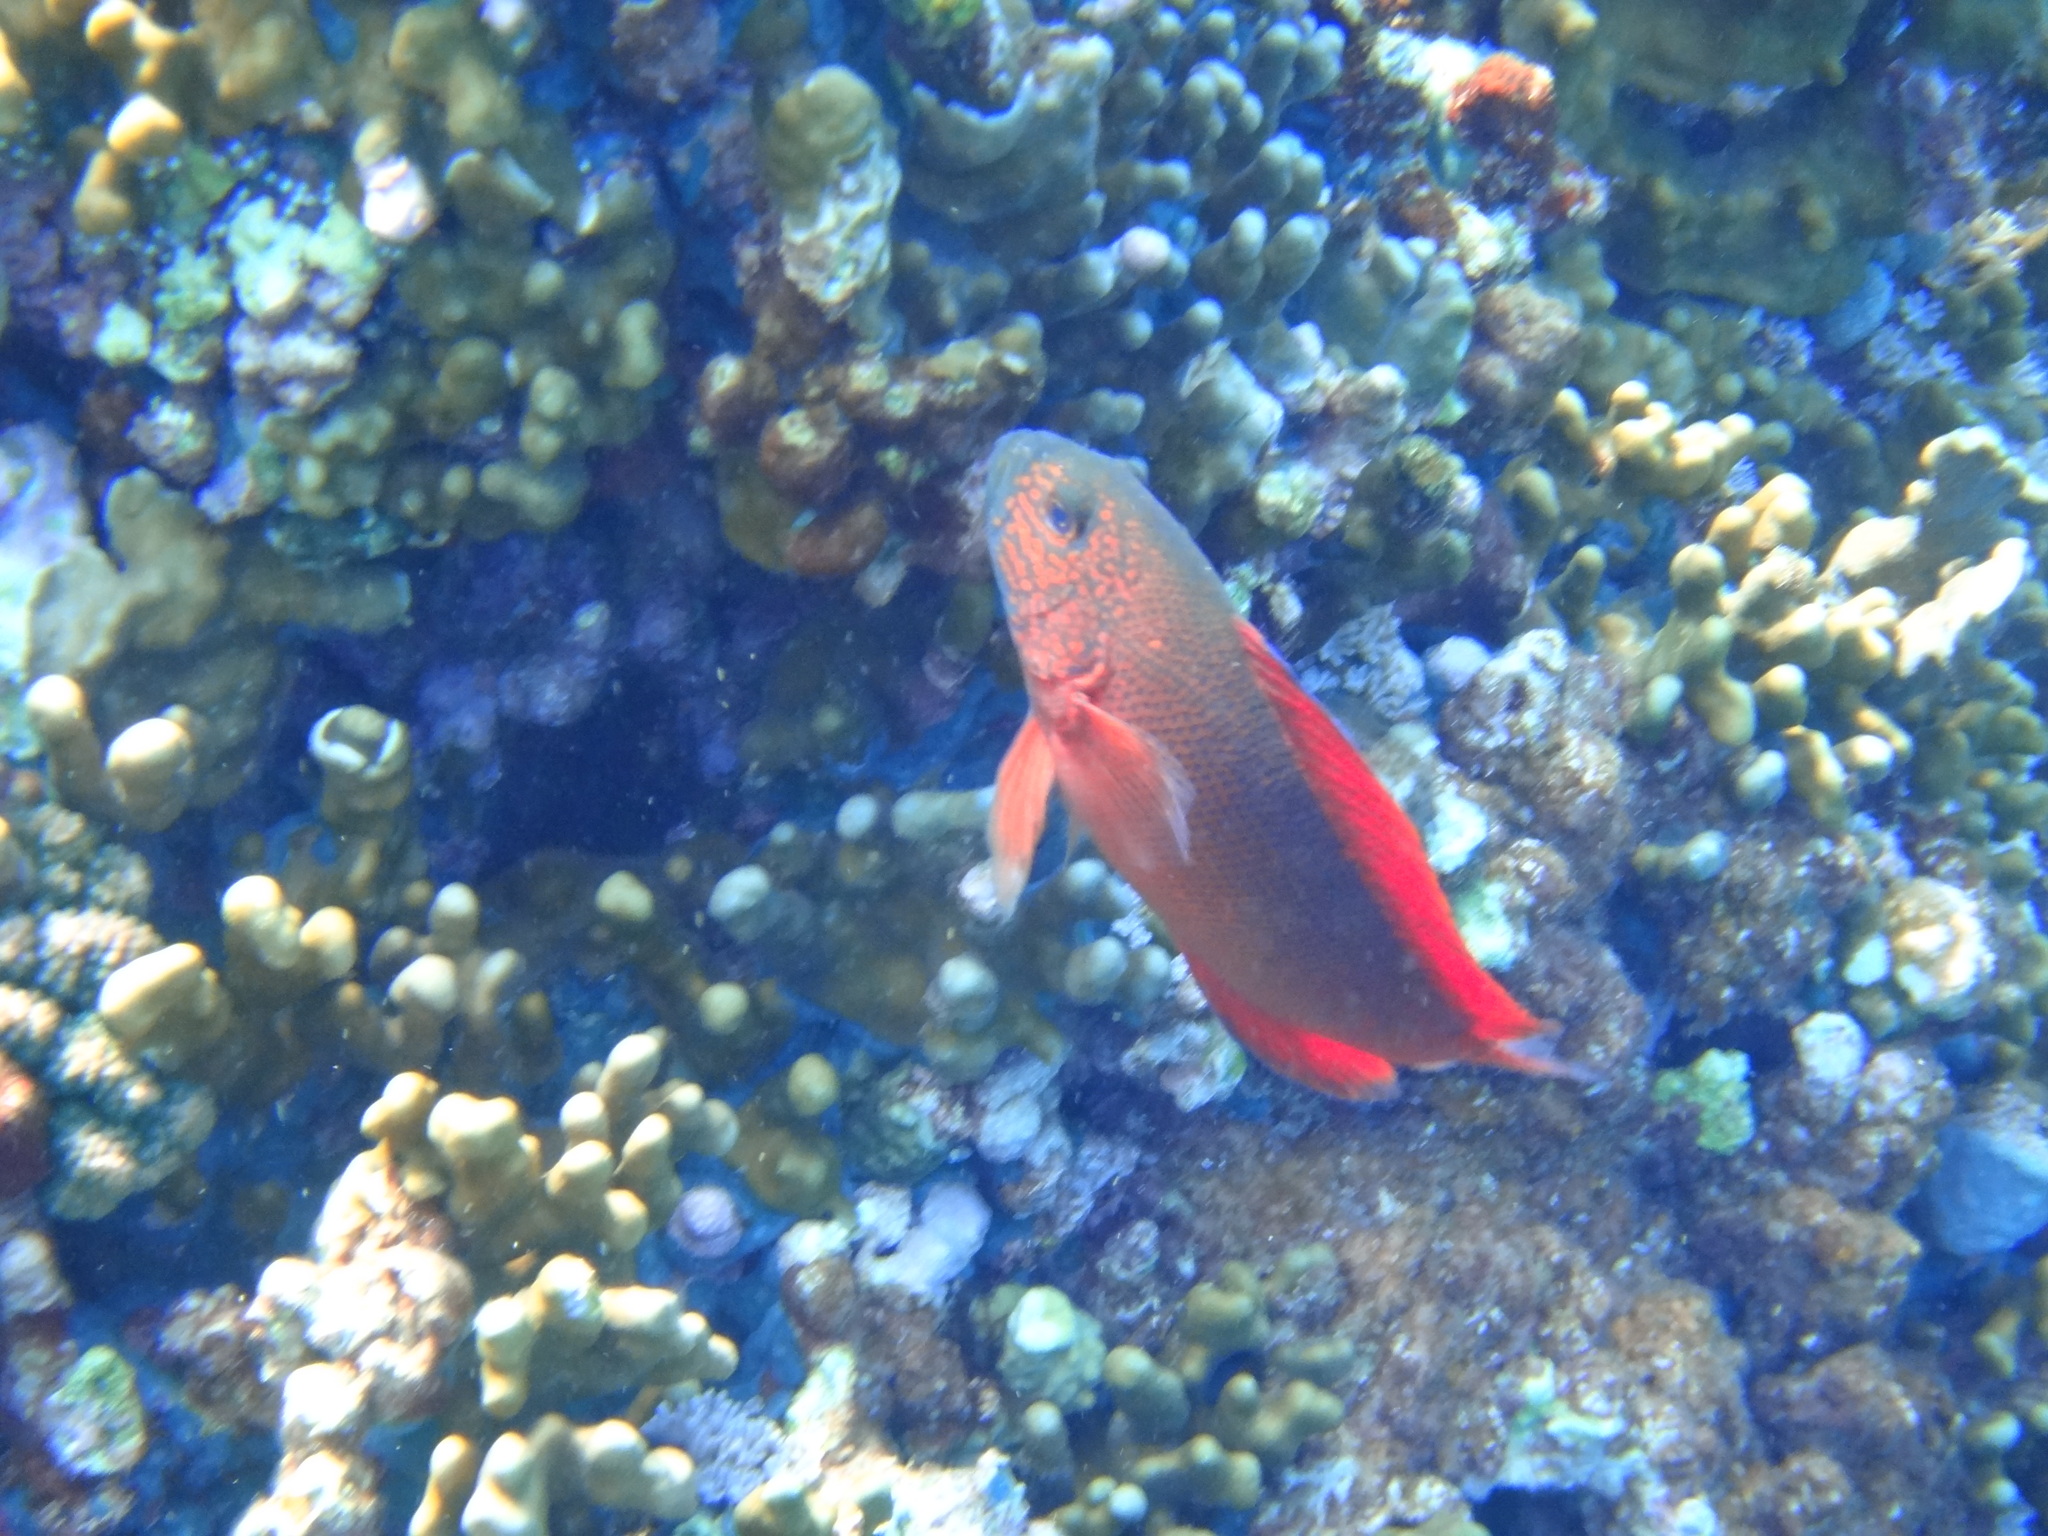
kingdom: Animalia
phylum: Chordata
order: Perciformes
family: Pseudochromidae
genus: Labracinus
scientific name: Labracinus cyclophthalmus
